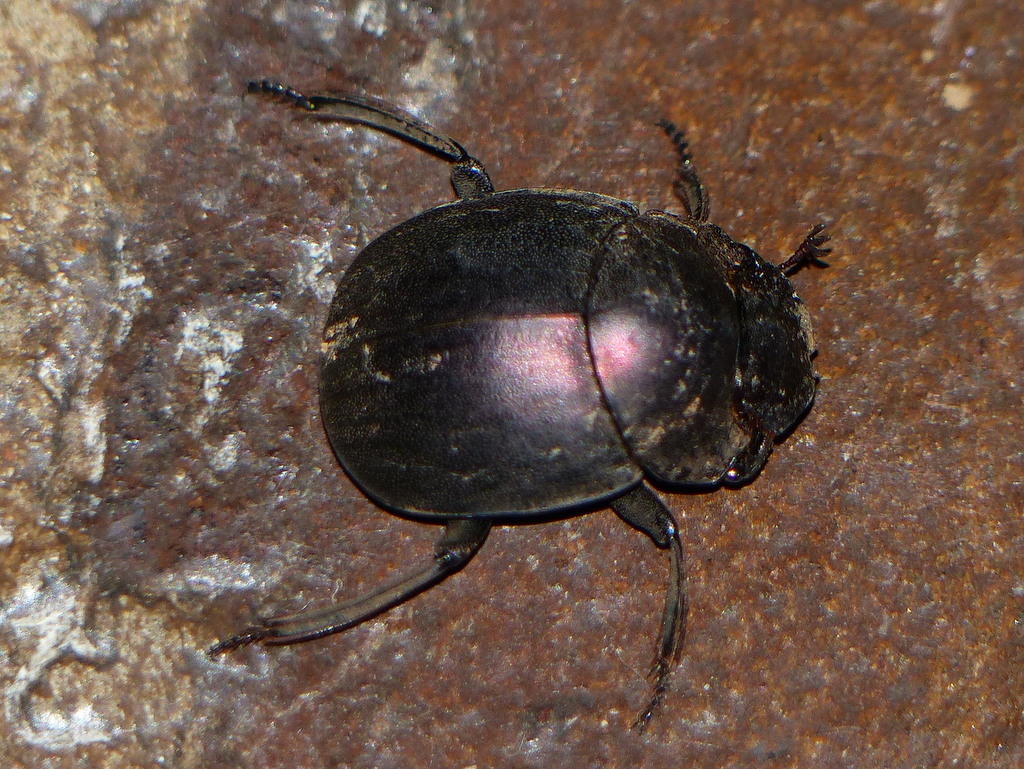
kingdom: Animalia
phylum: Arthropoda
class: Insecta
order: Coleoptera
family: Scarabaeidae
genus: Chalconotus
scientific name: Chalconotus convexus
